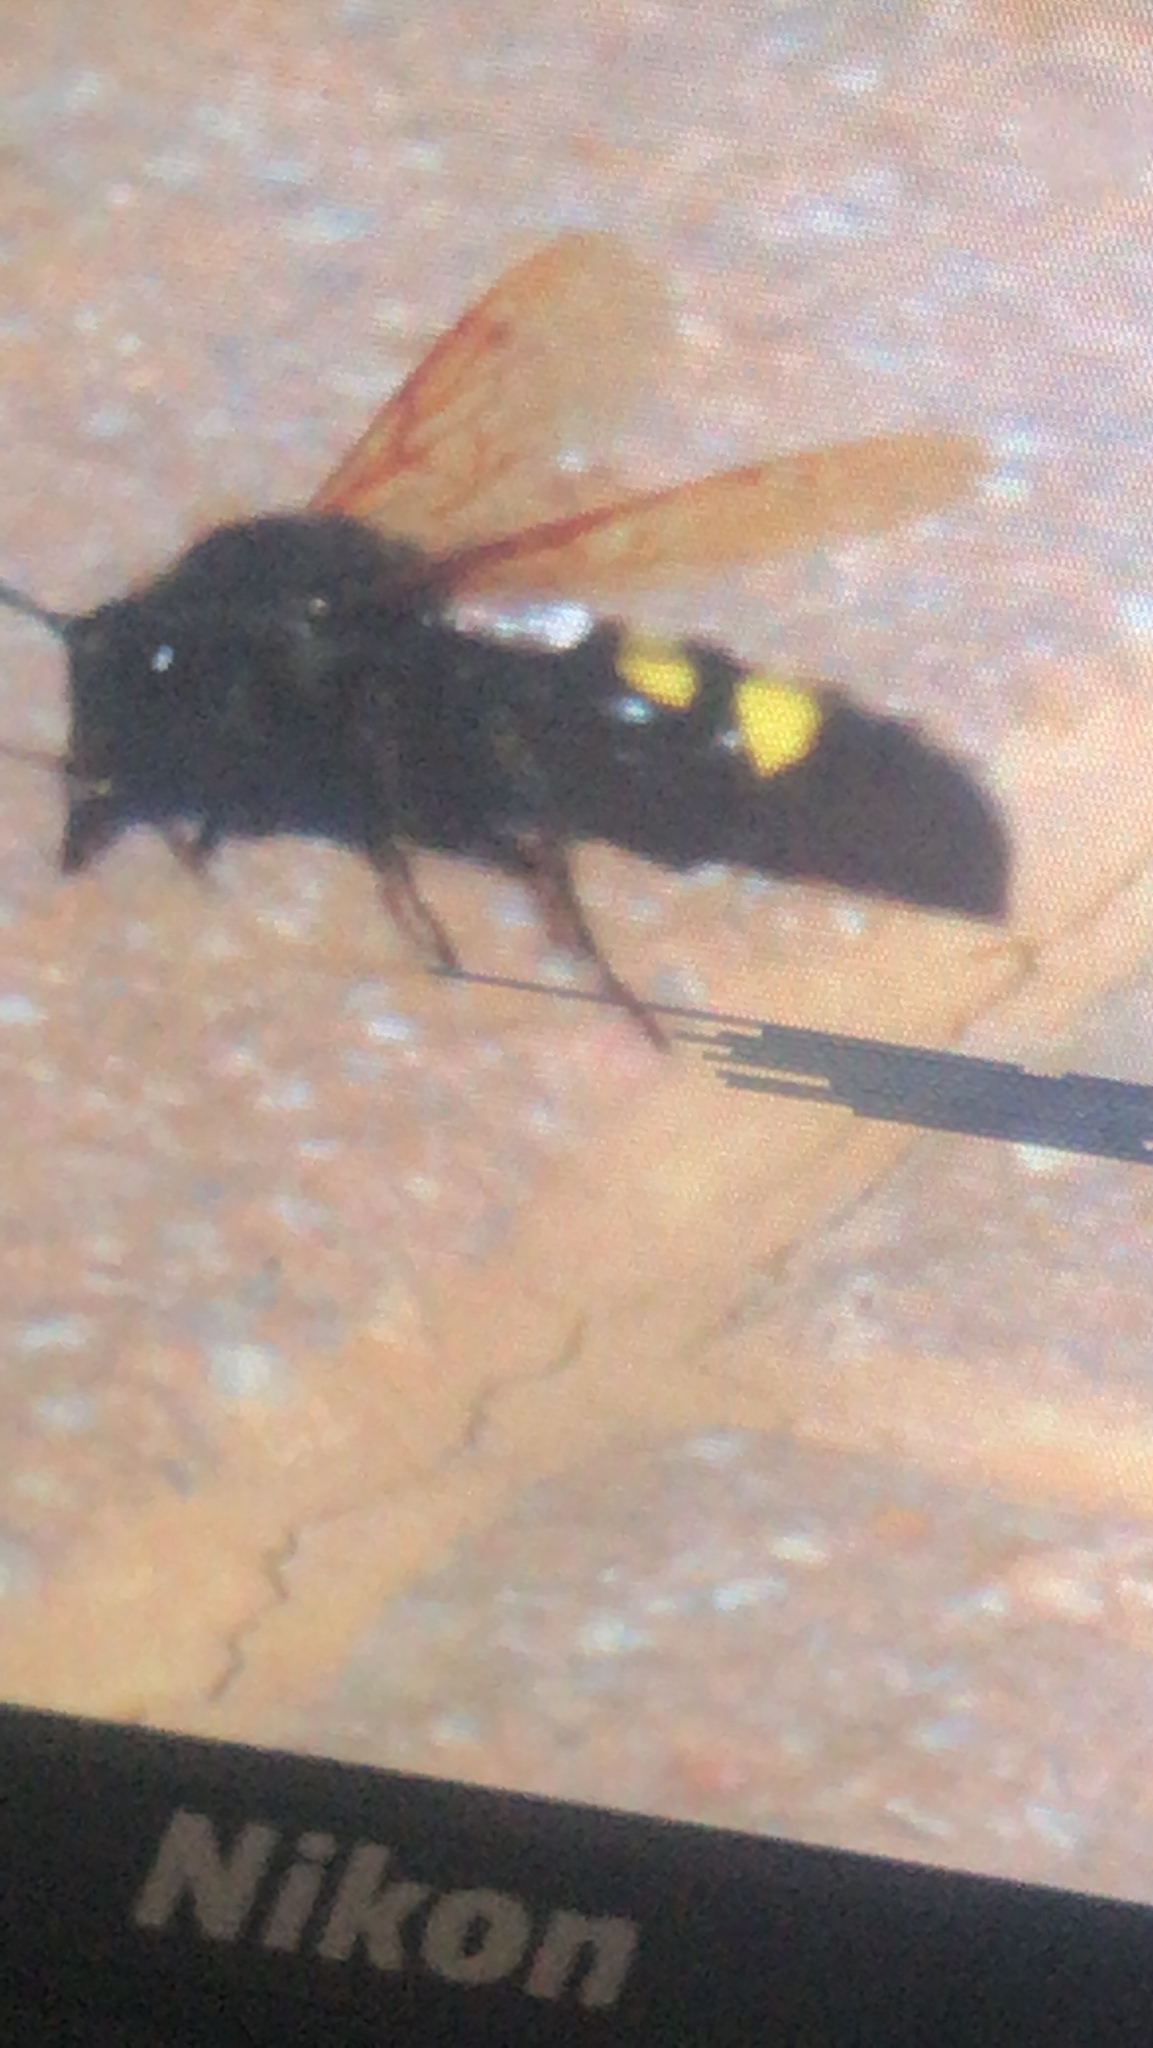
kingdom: Animalia
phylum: Arthropoda
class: Insecta
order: Hymenoptera
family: Scoliidae
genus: Megascolia
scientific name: Megascolia maculata
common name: Mammoth wasp
